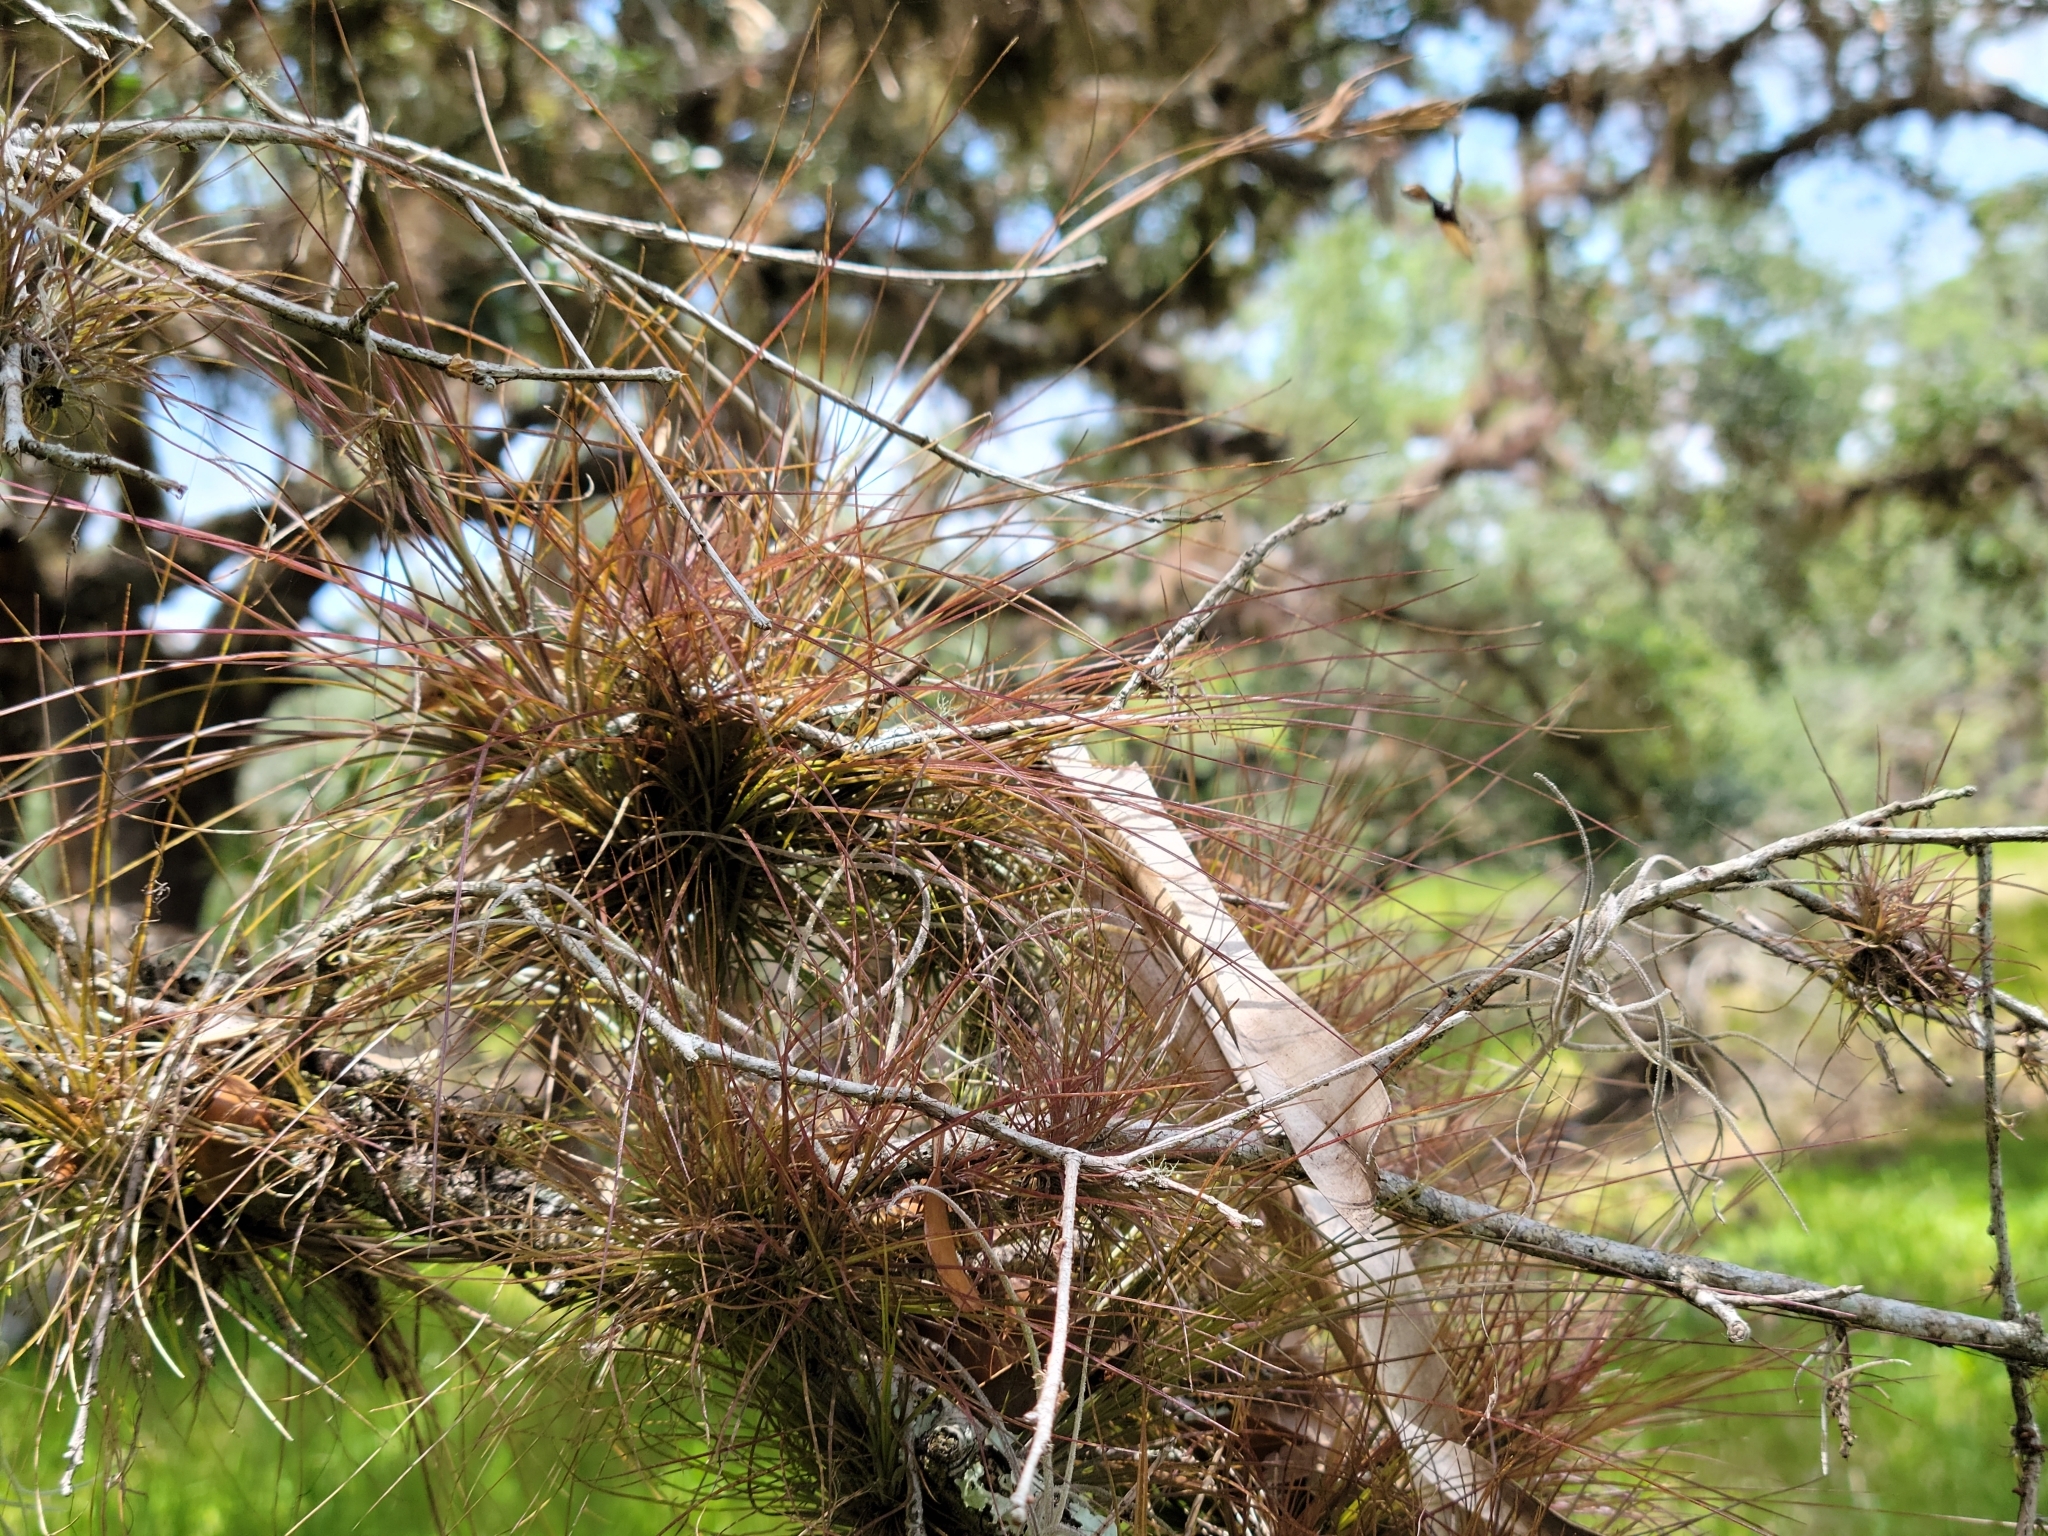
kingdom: Plantae
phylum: Tracheophyta
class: Liliopsida
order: Poales
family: Bromeliaceae
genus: Tillandsia
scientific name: Tillandsia setacea
